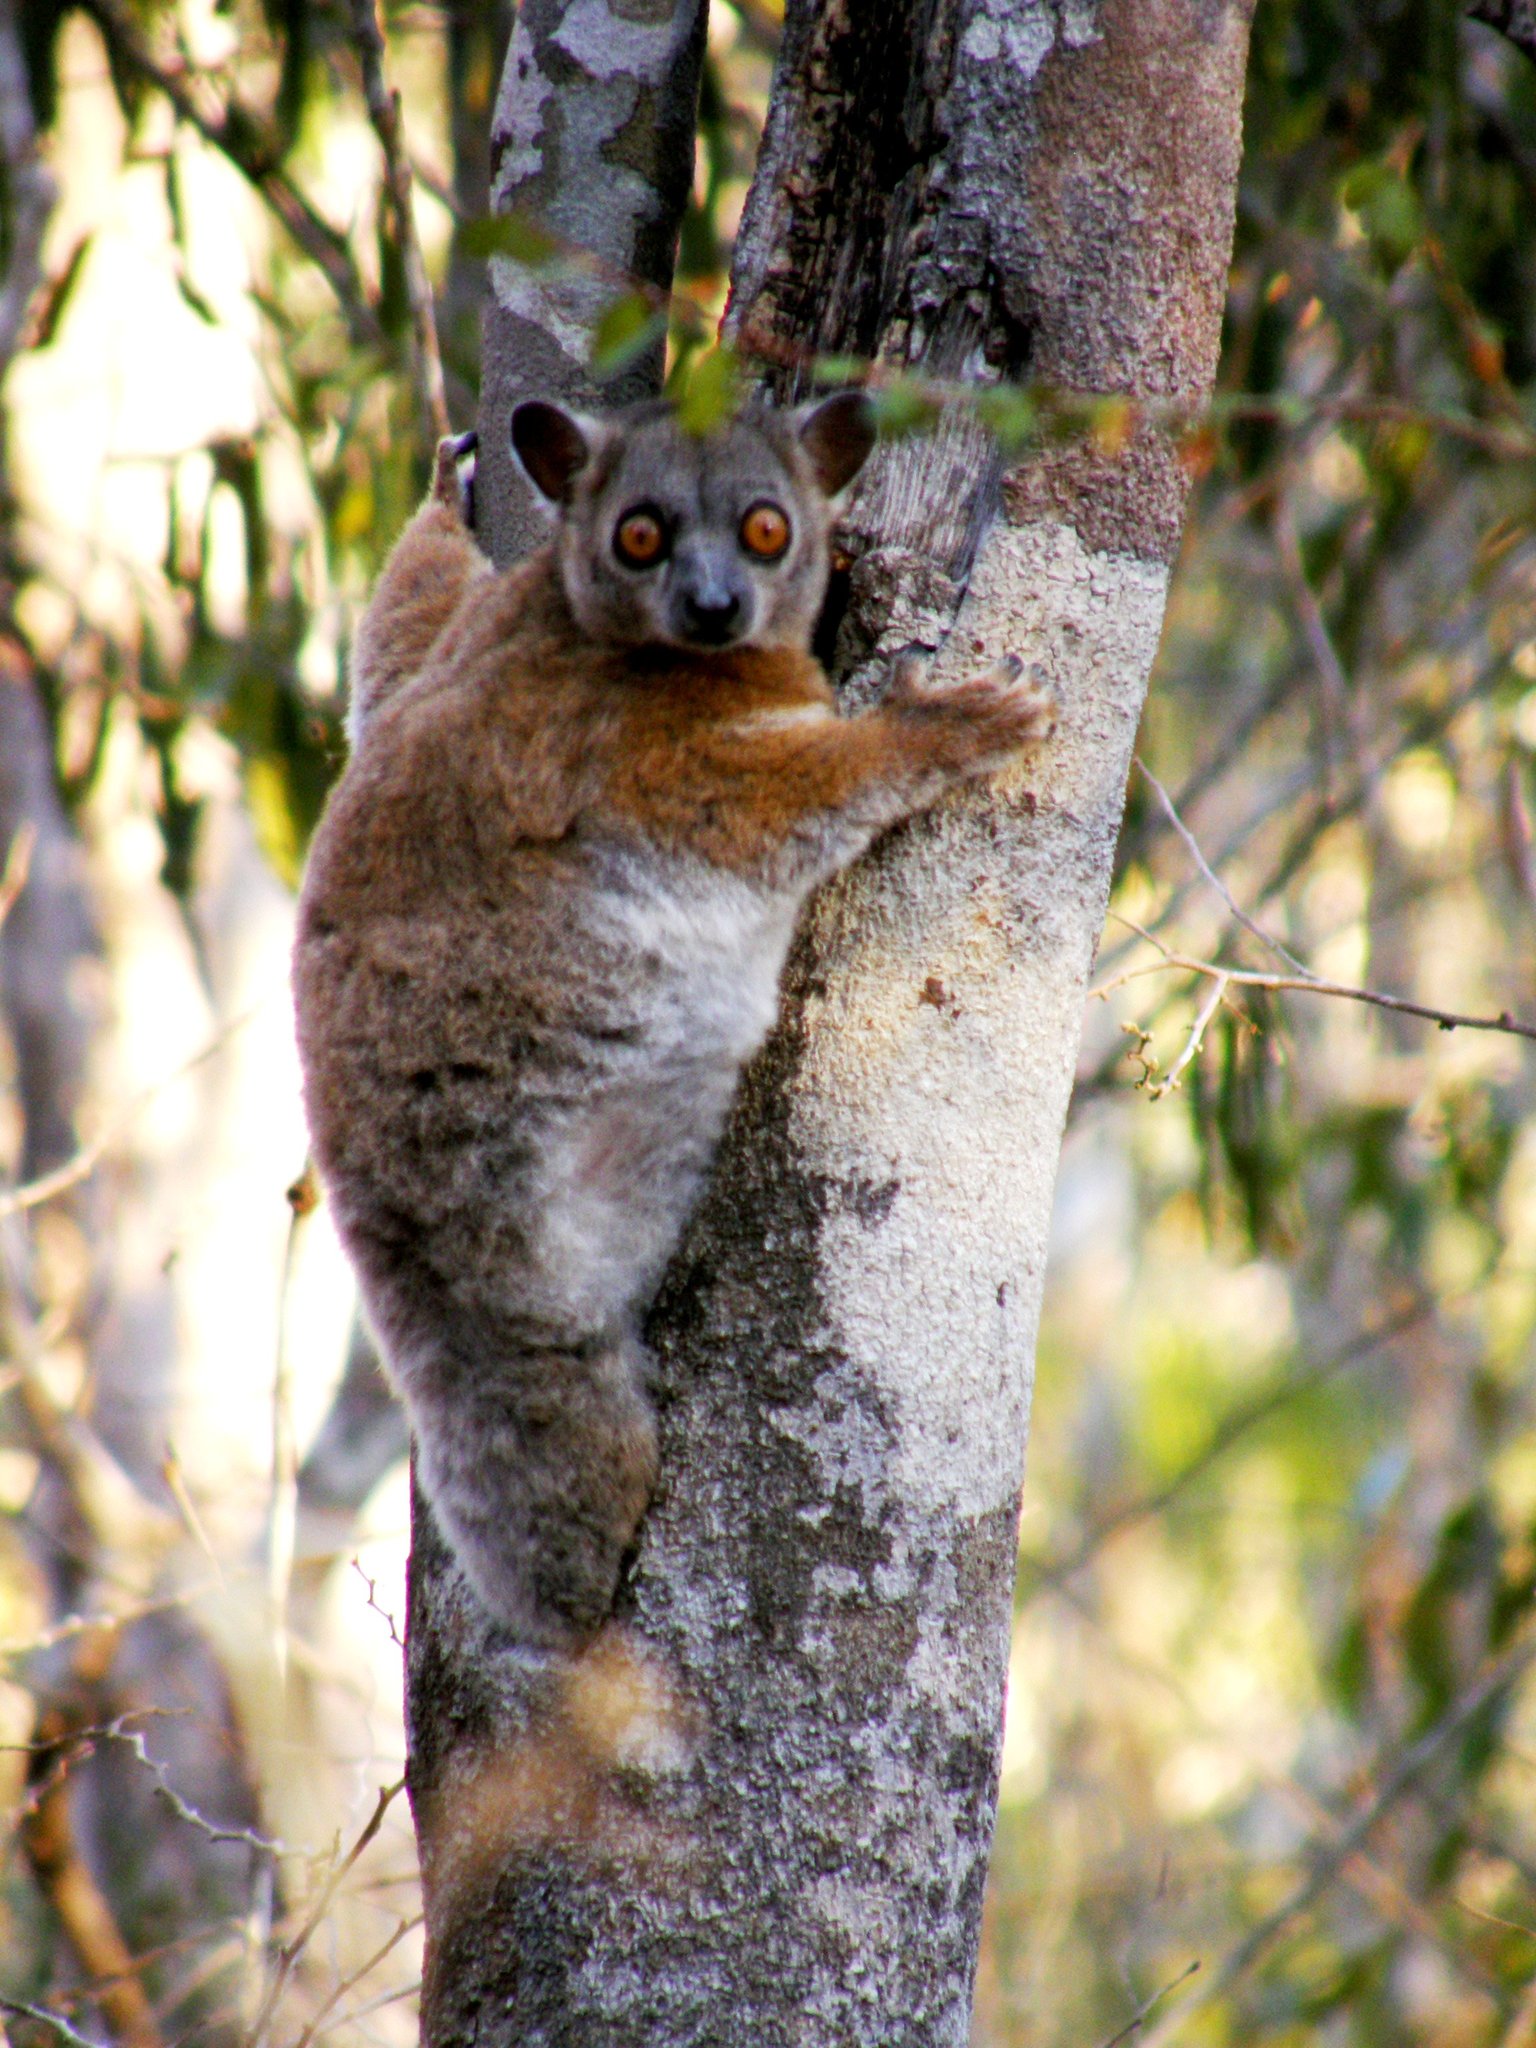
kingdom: Animalia
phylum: Chordata
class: Mammalia
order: Primates
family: Lepilemuridae
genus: Lepilemur
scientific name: Lepilemur ruficaudatus
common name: Red-tailed sportive lemur
